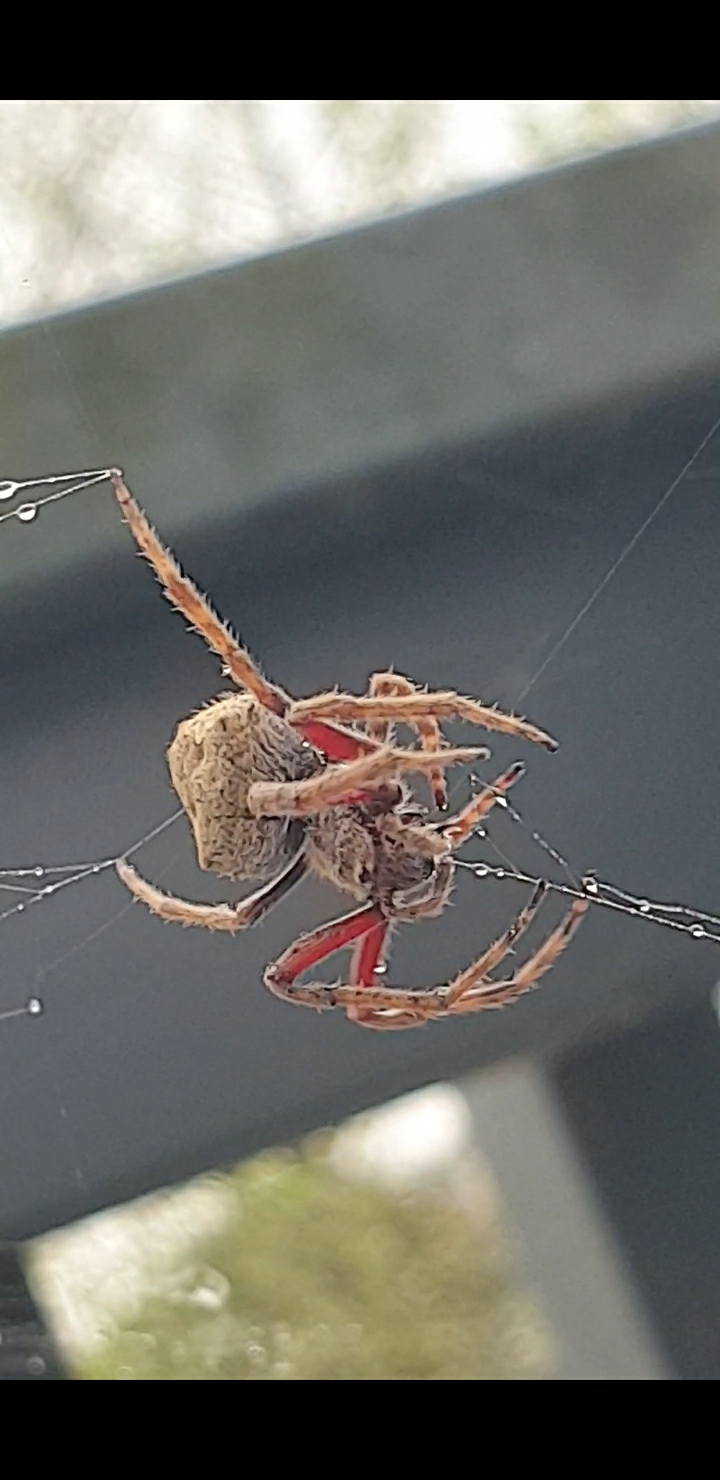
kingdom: Animalia
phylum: Arthropoda
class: Arachnida
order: Araneae
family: Araneidae
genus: Eriophora
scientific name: Eriophora pustulosa
